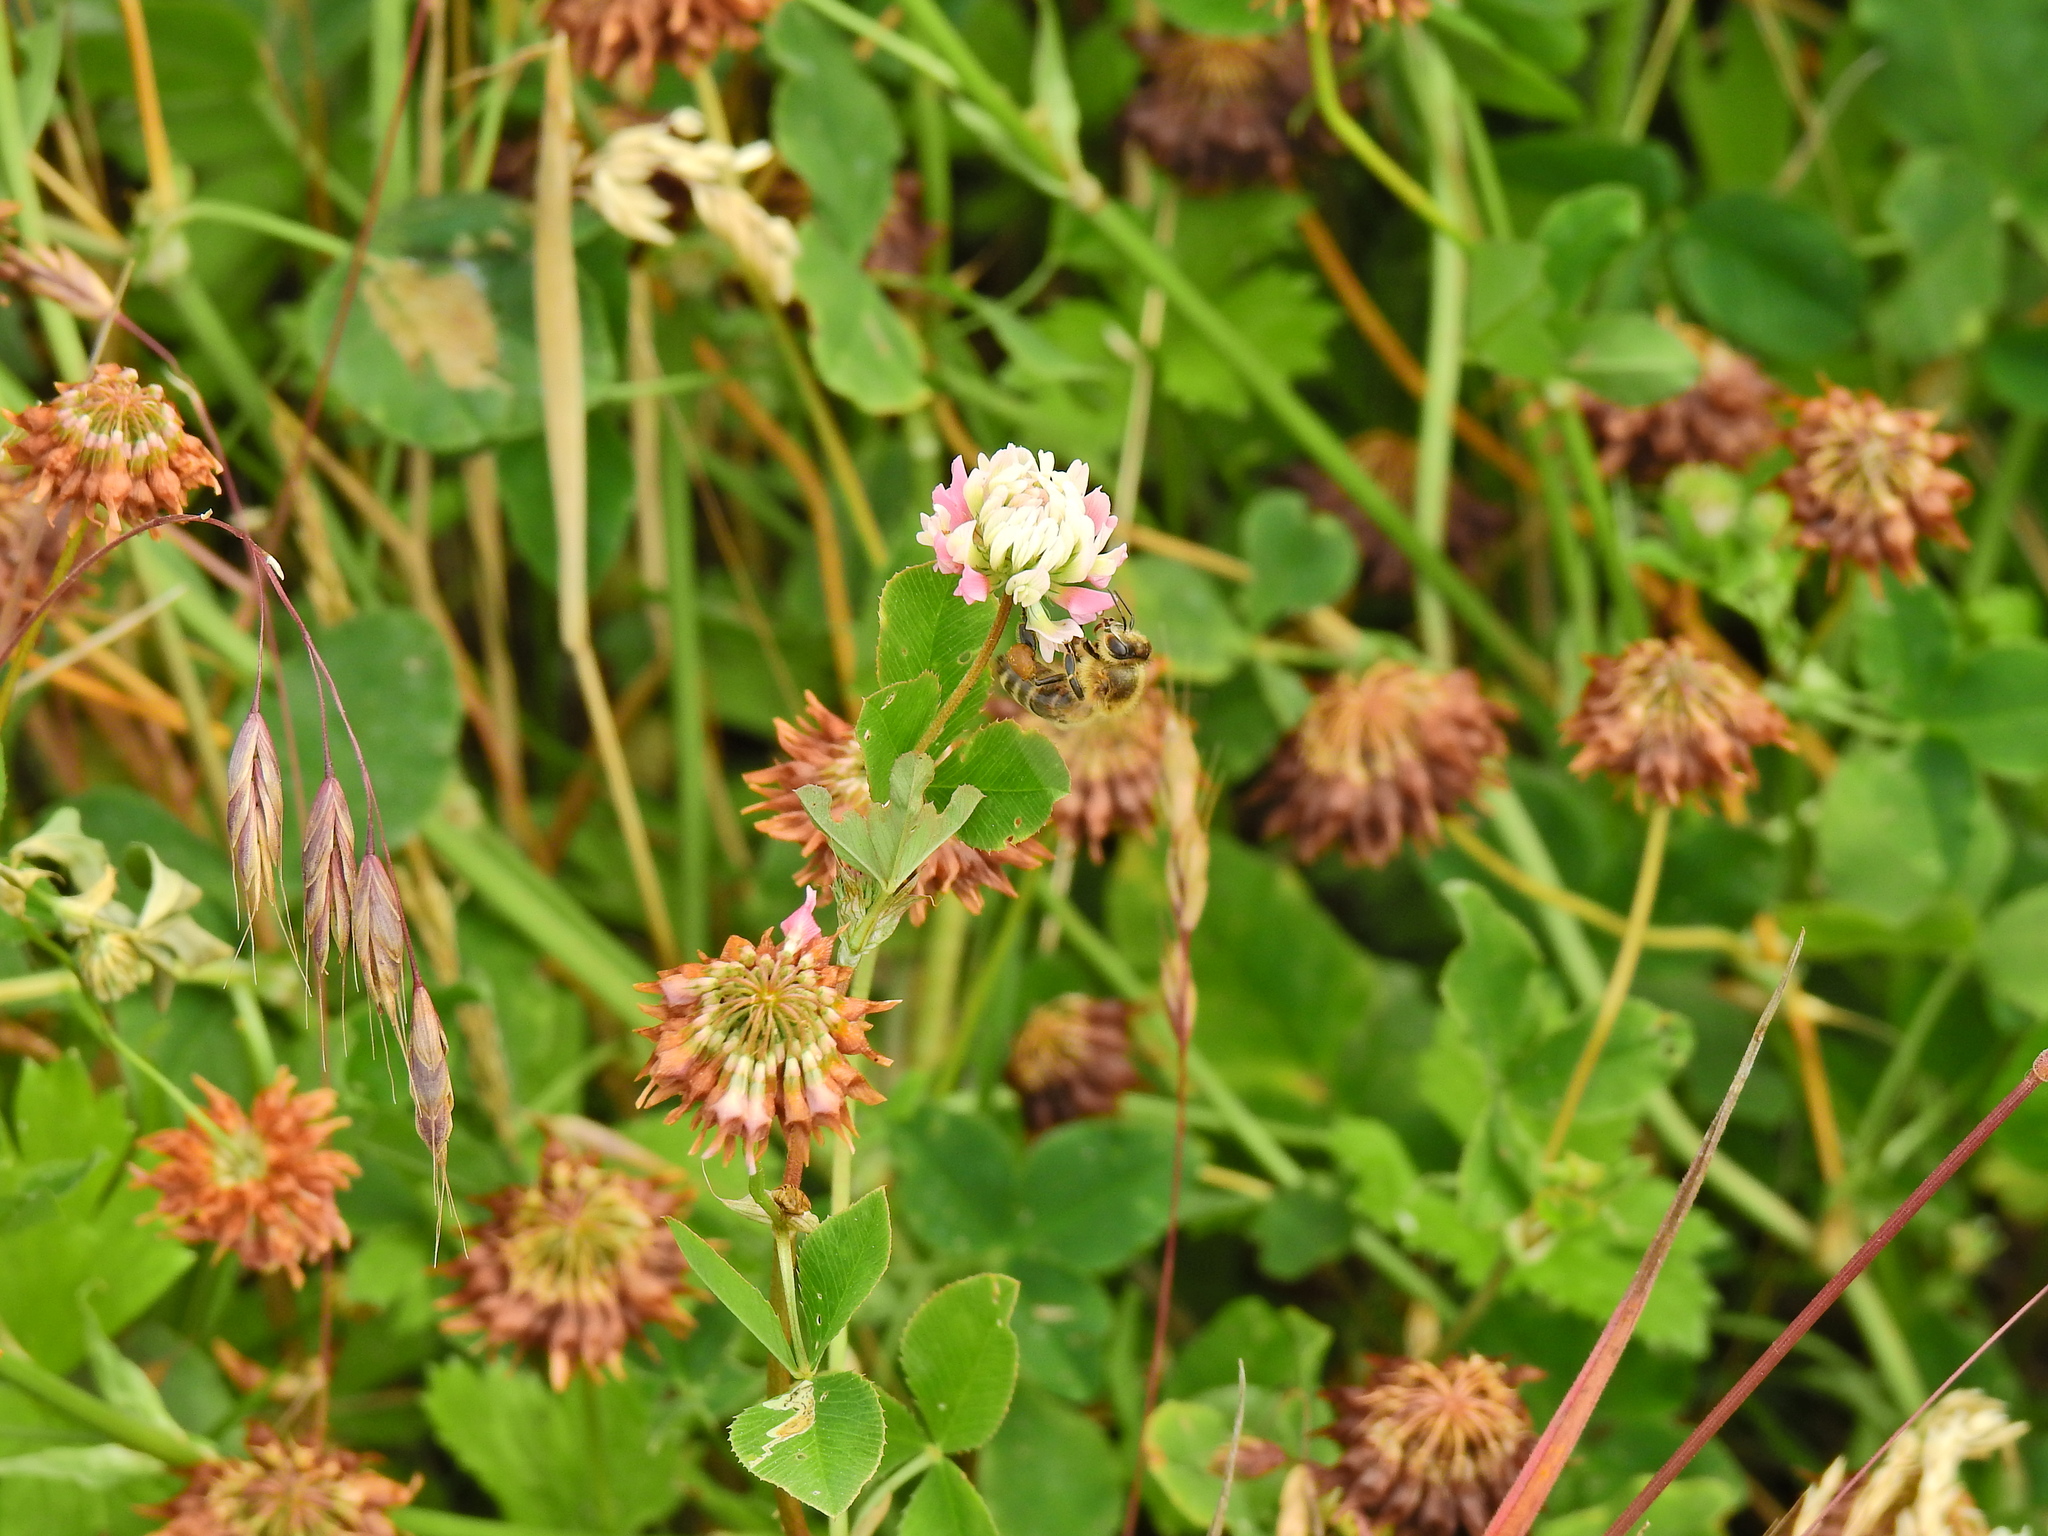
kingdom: Animalia
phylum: Arthropoda
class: Insecta
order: Hymenoptera
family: Apidae
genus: Apis
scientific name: Apis mellifera
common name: Honey bee
